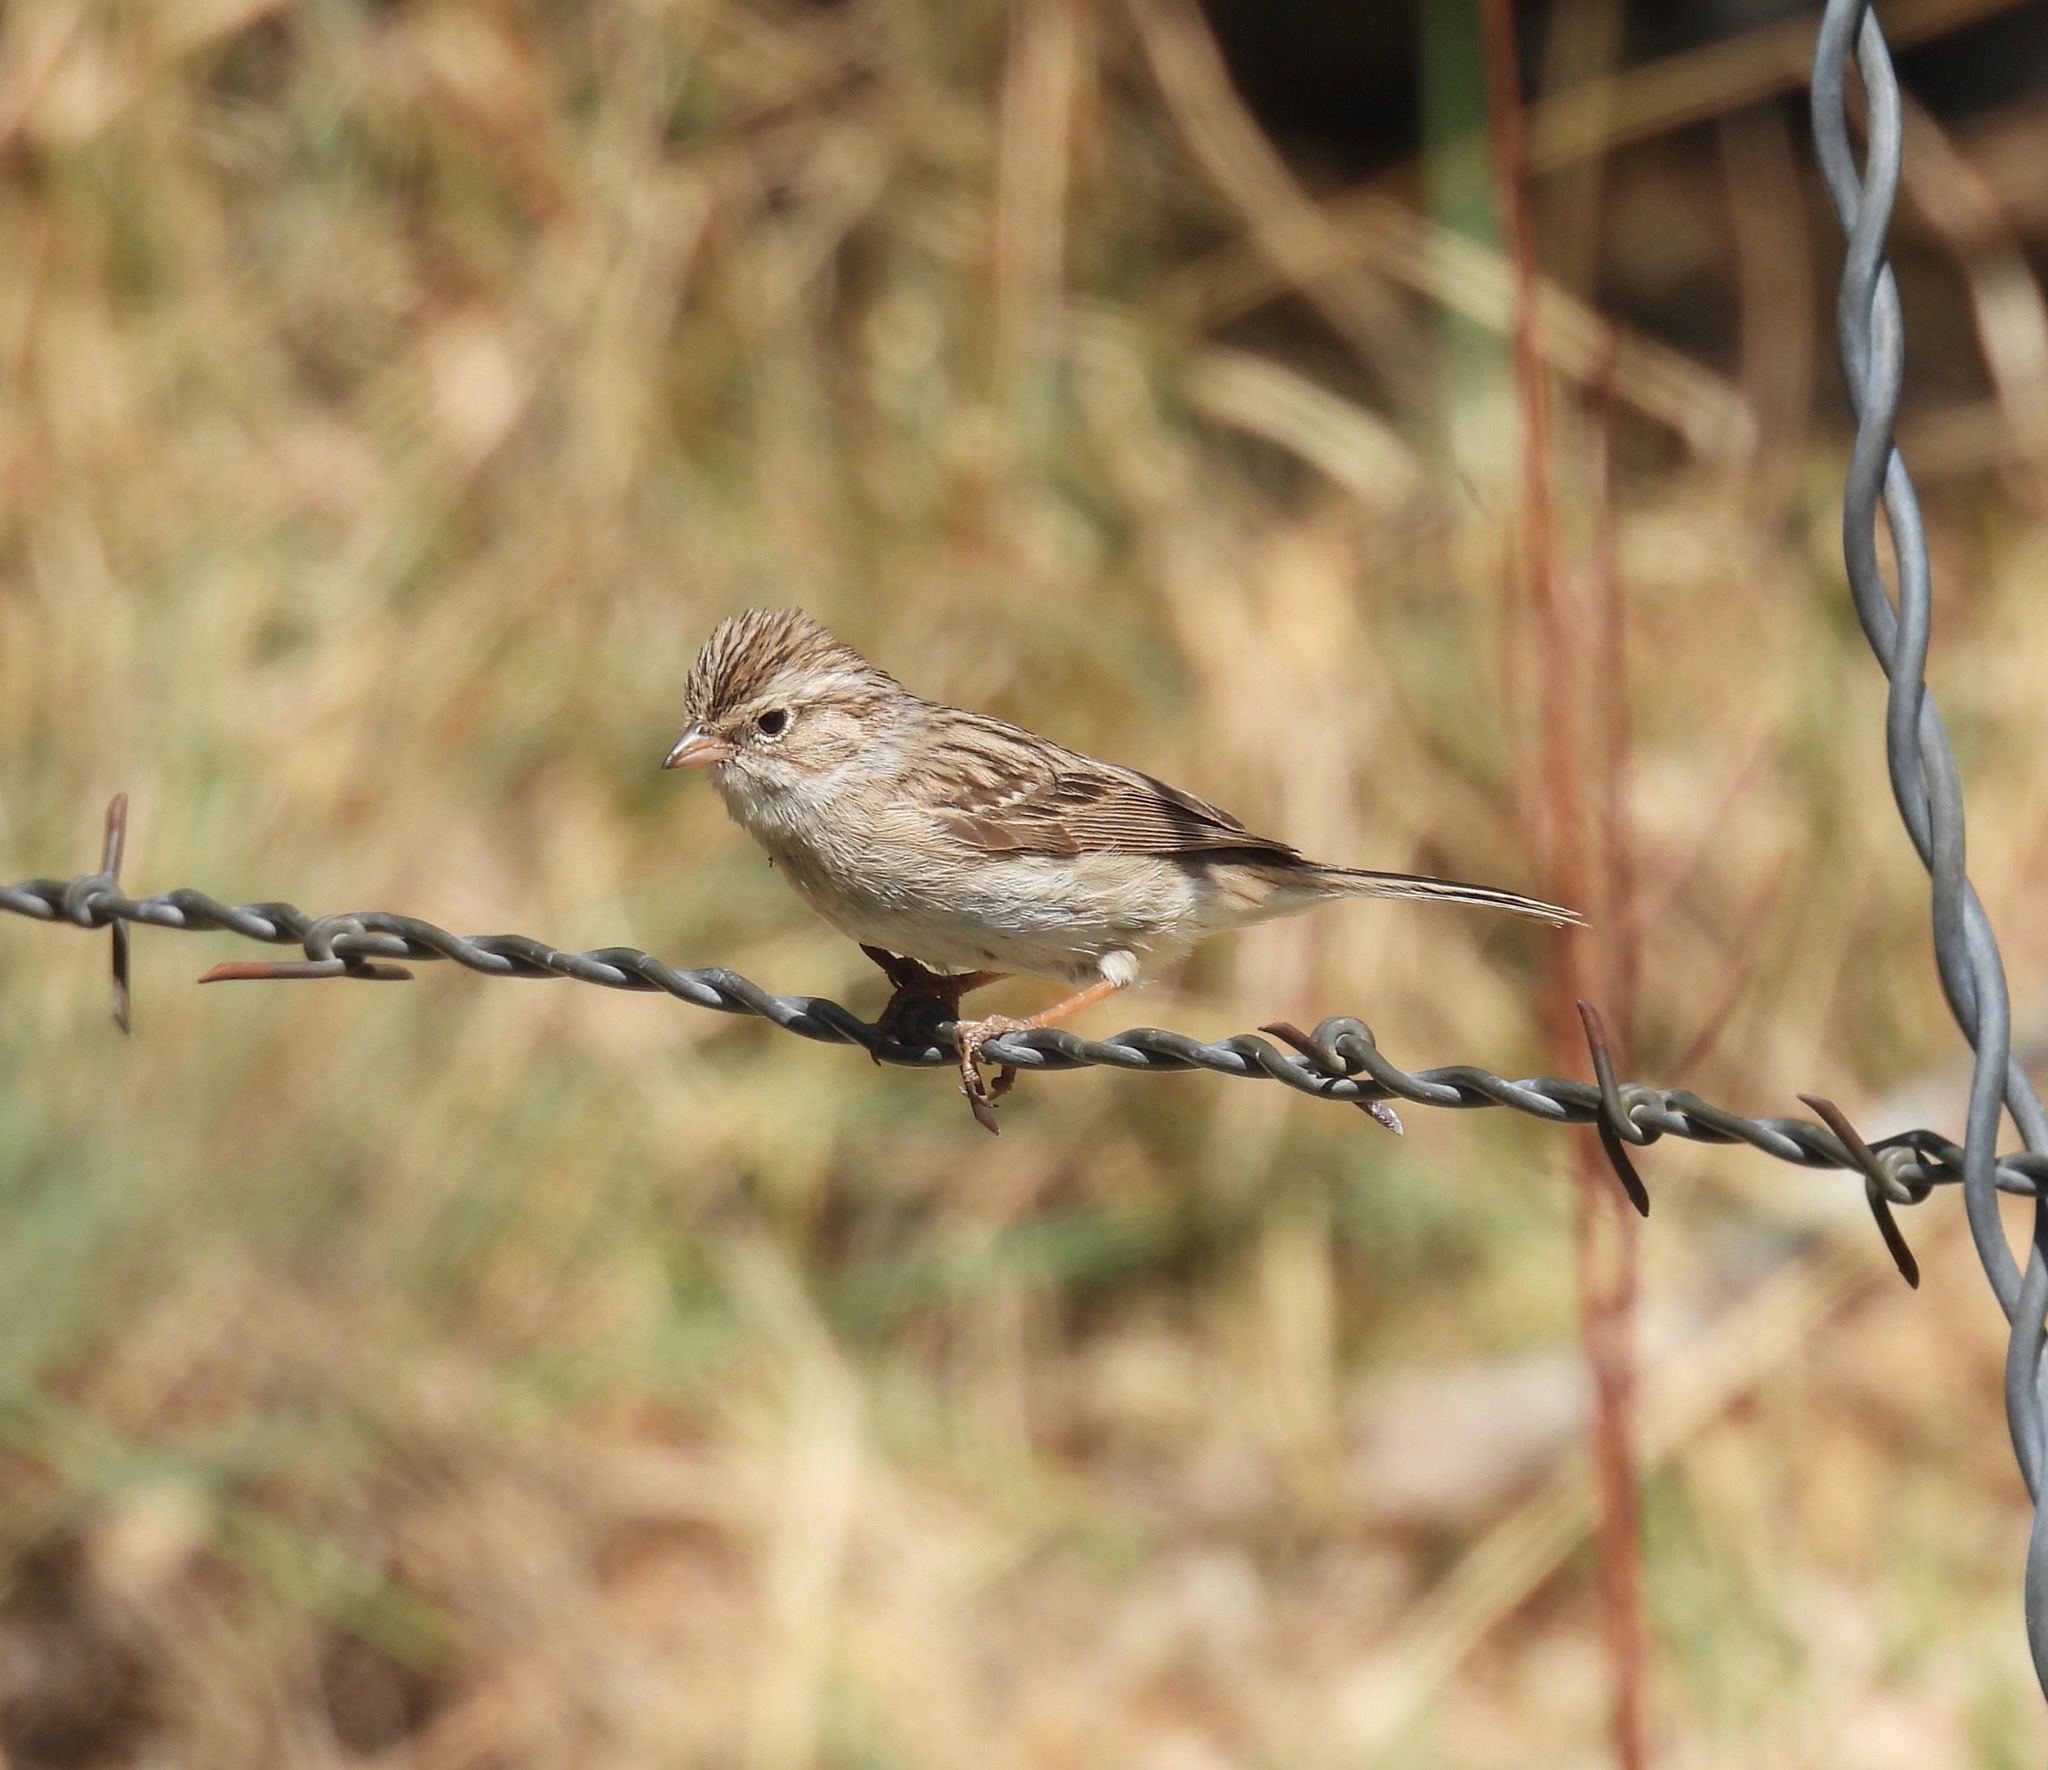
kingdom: Animalia
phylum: Chordata
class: Aves
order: Passeriformes
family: Passerellidae
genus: Spizella
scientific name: Spizella breweri
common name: Brewer's sparrow
